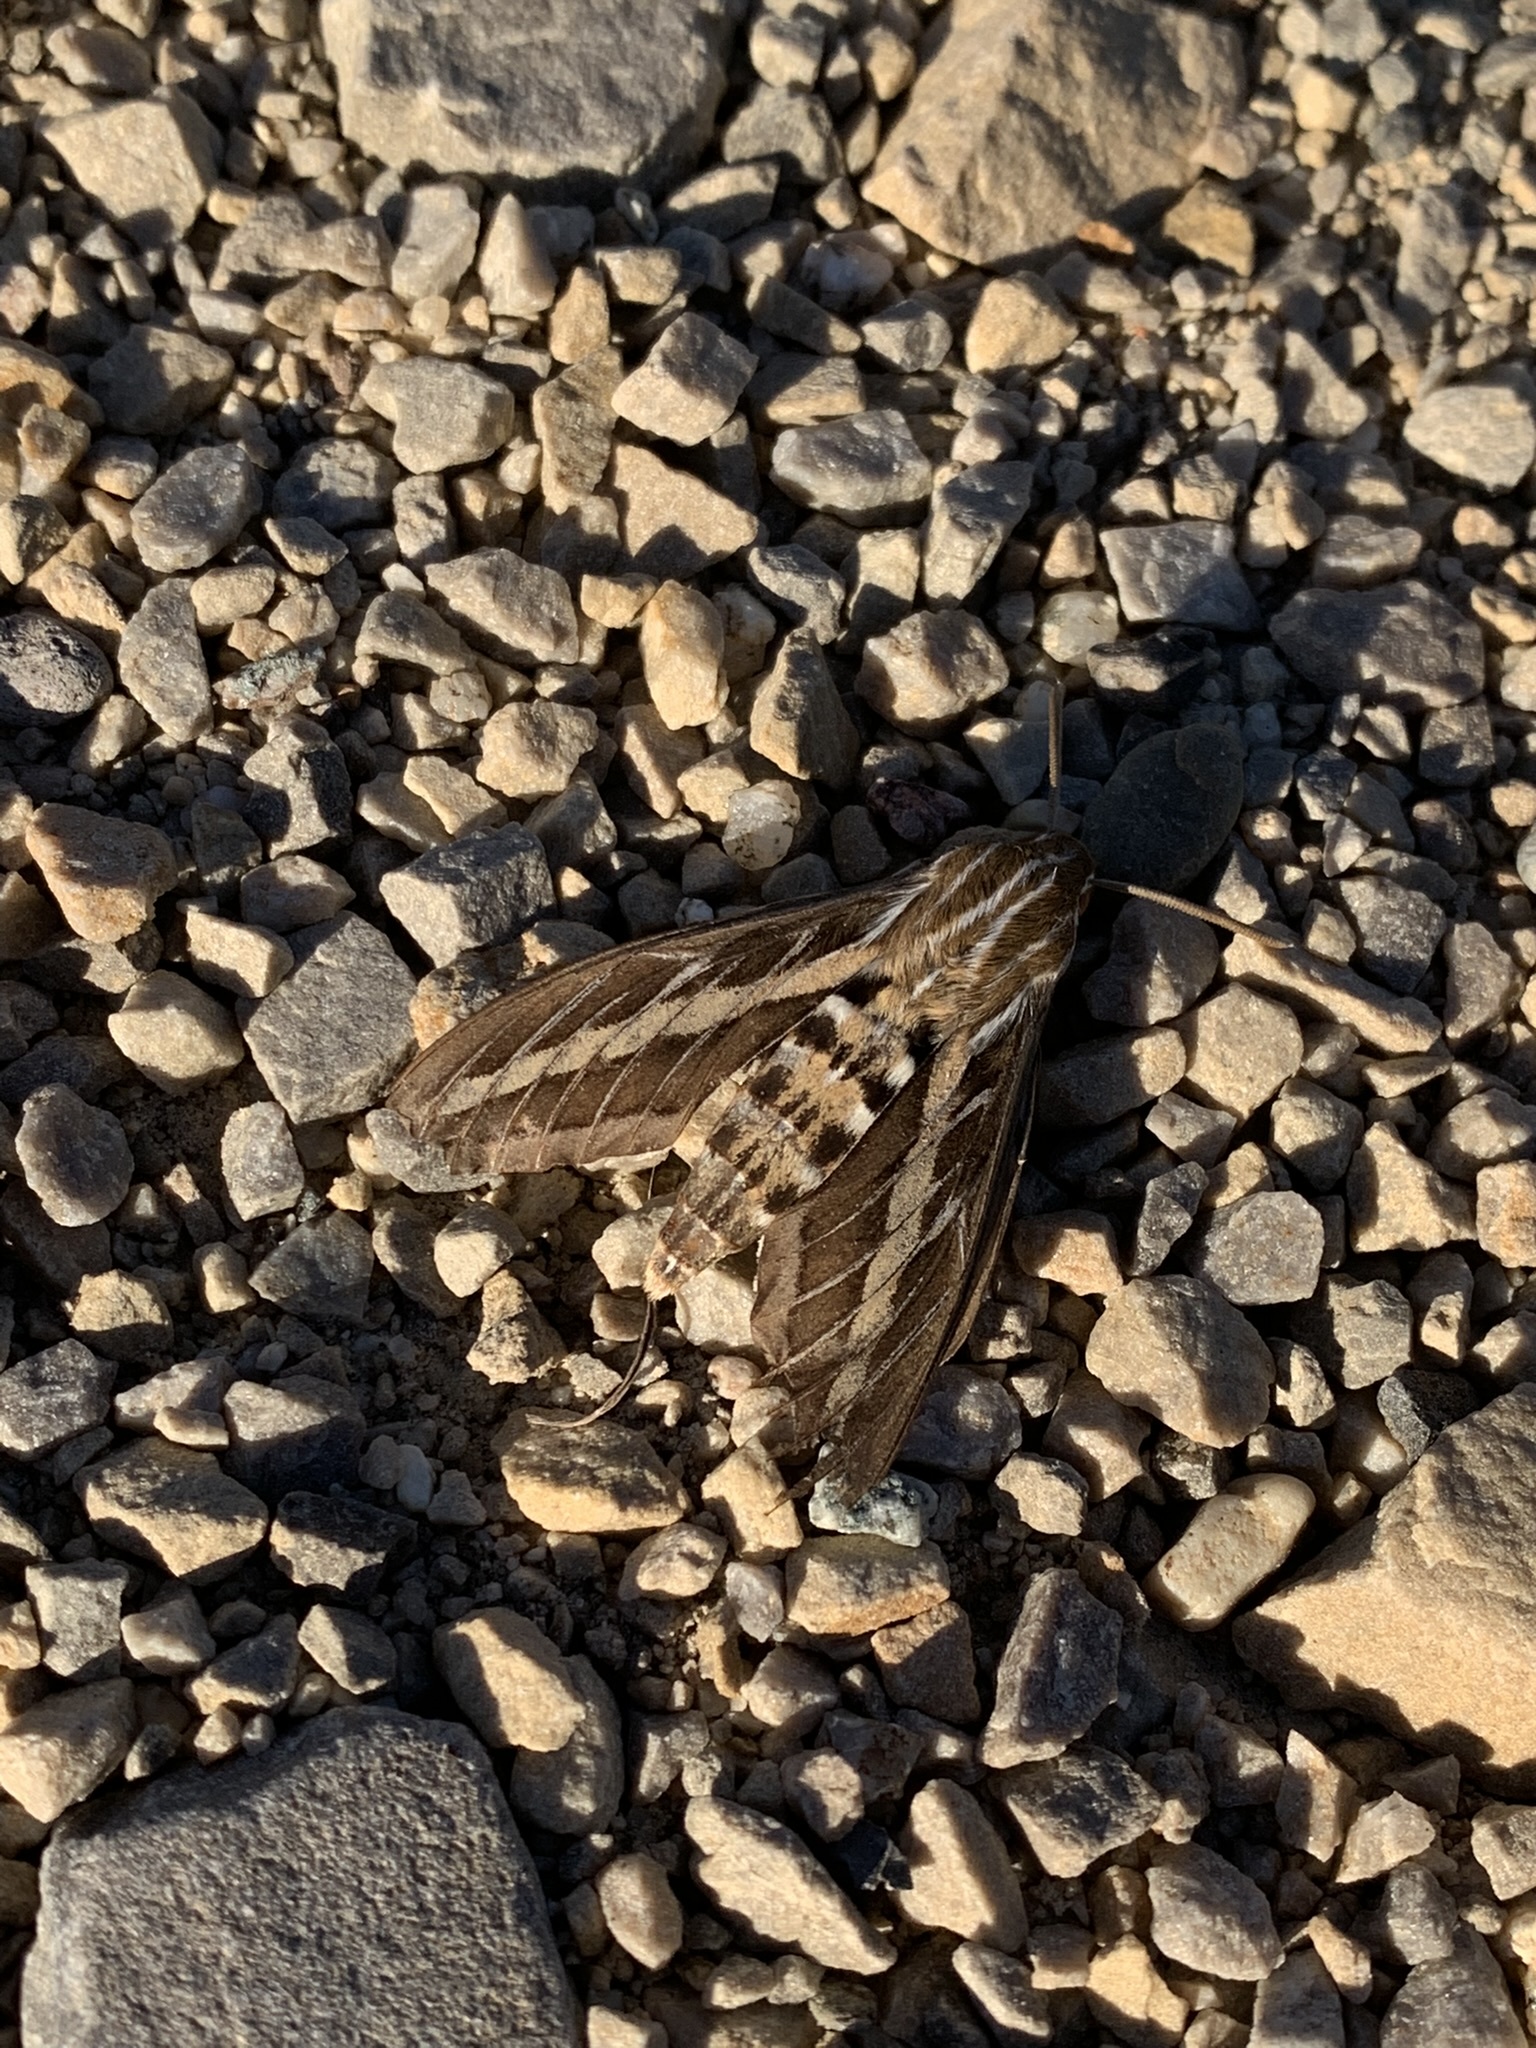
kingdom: Animalia
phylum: Arthropoda
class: Insecta
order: Lepidoptera
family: Sphingidae
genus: Hyles
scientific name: Hyles lineata
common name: White-lined sphinx
